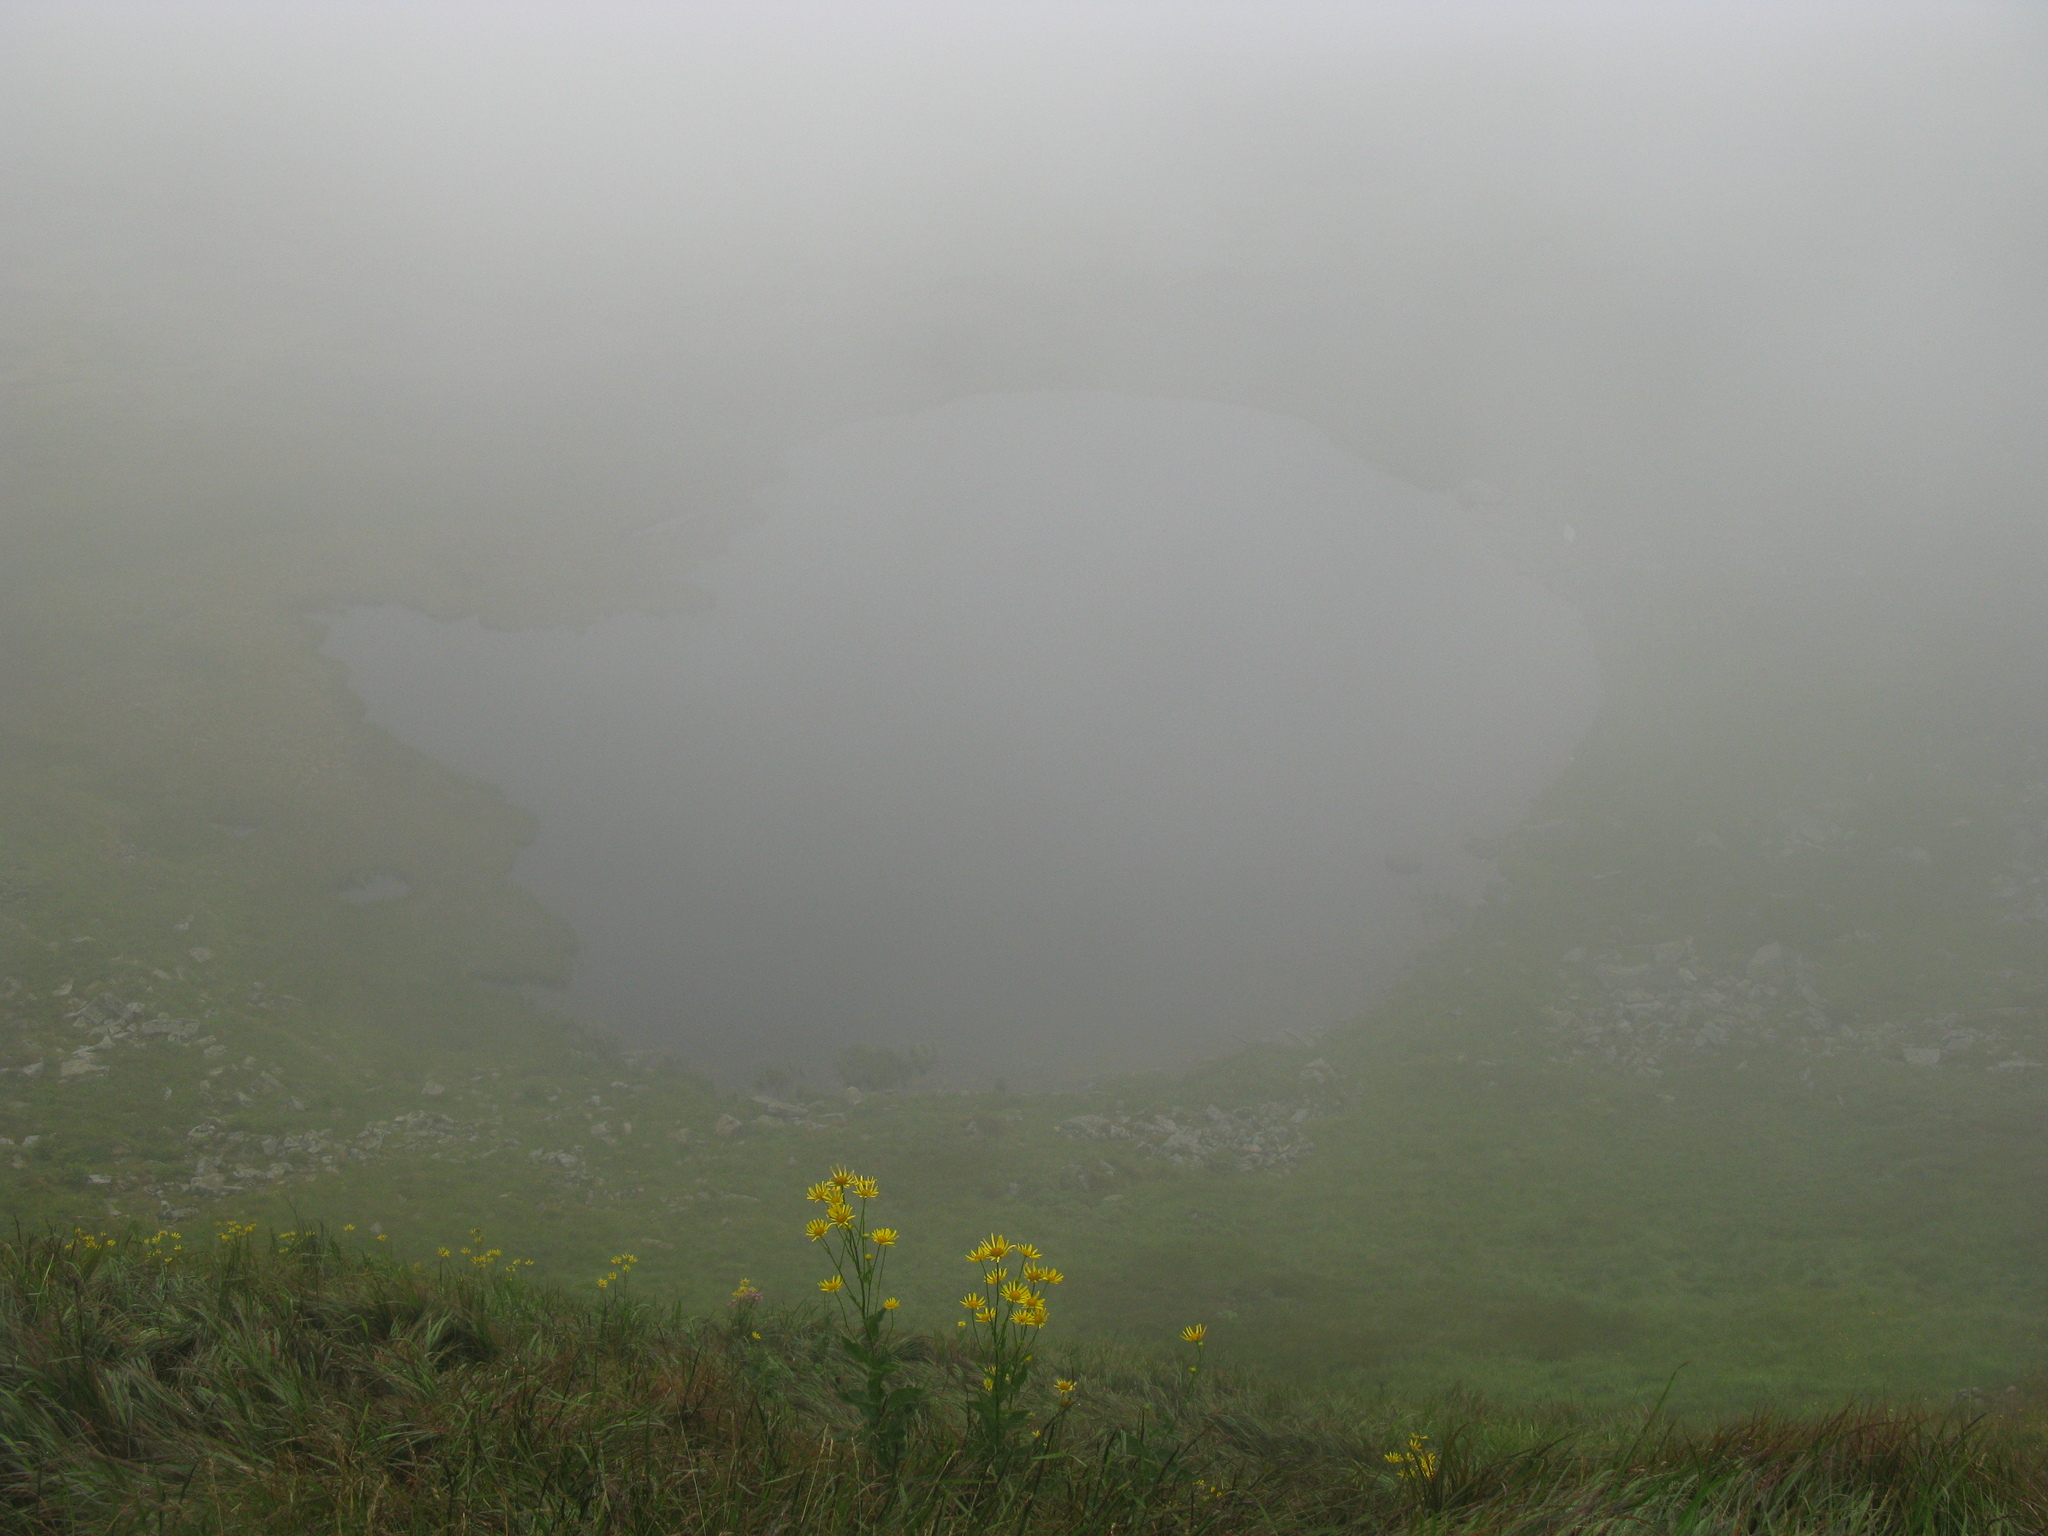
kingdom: Plantae
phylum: Tracheophyta
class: Magnoliopsida
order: Asterales
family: Asteraceae
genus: Doronicum
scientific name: Doronicum austriacum
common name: Austrian leopard's-bane
